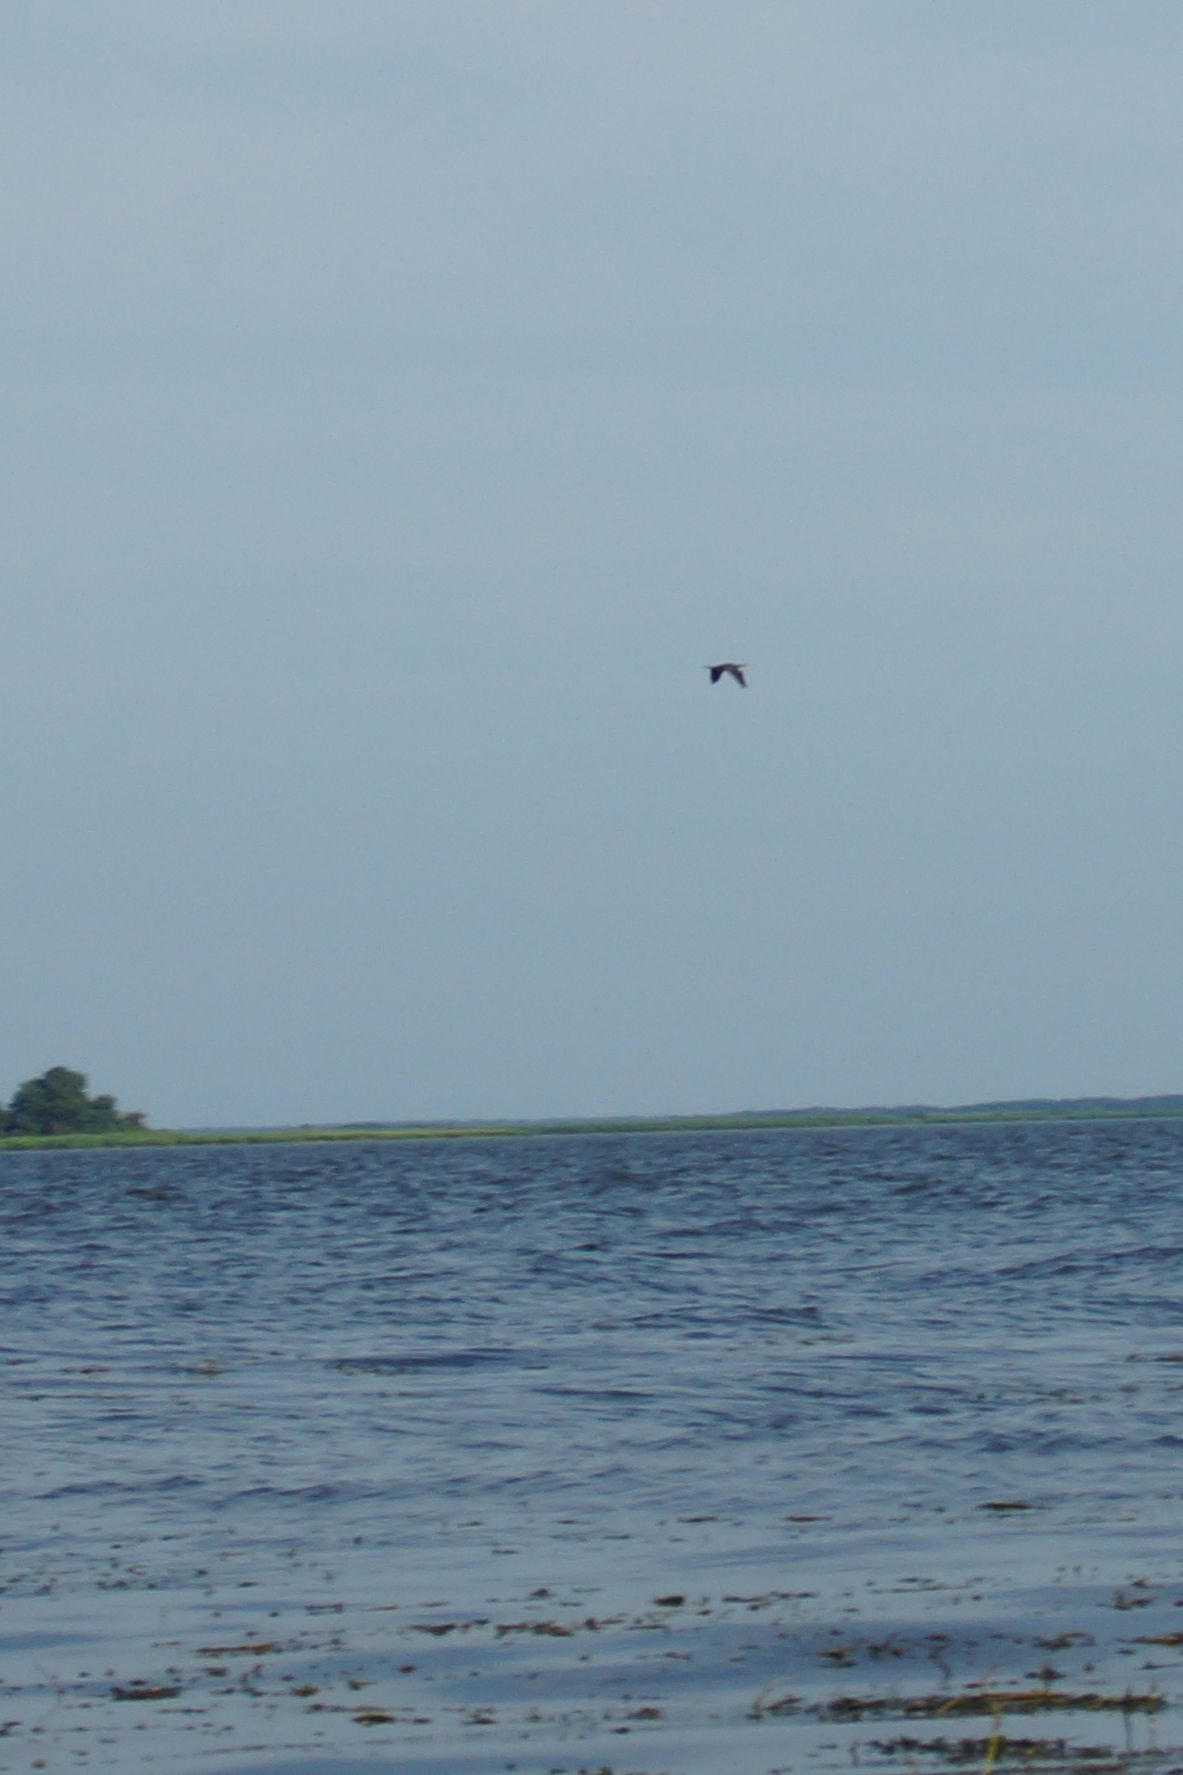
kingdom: Animalia
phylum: Chordata
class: Aves
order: Suliformes
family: Phalacrocoracidae
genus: Phalacrocorax
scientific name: Phalacrocorax carbo
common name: Great cormorant
